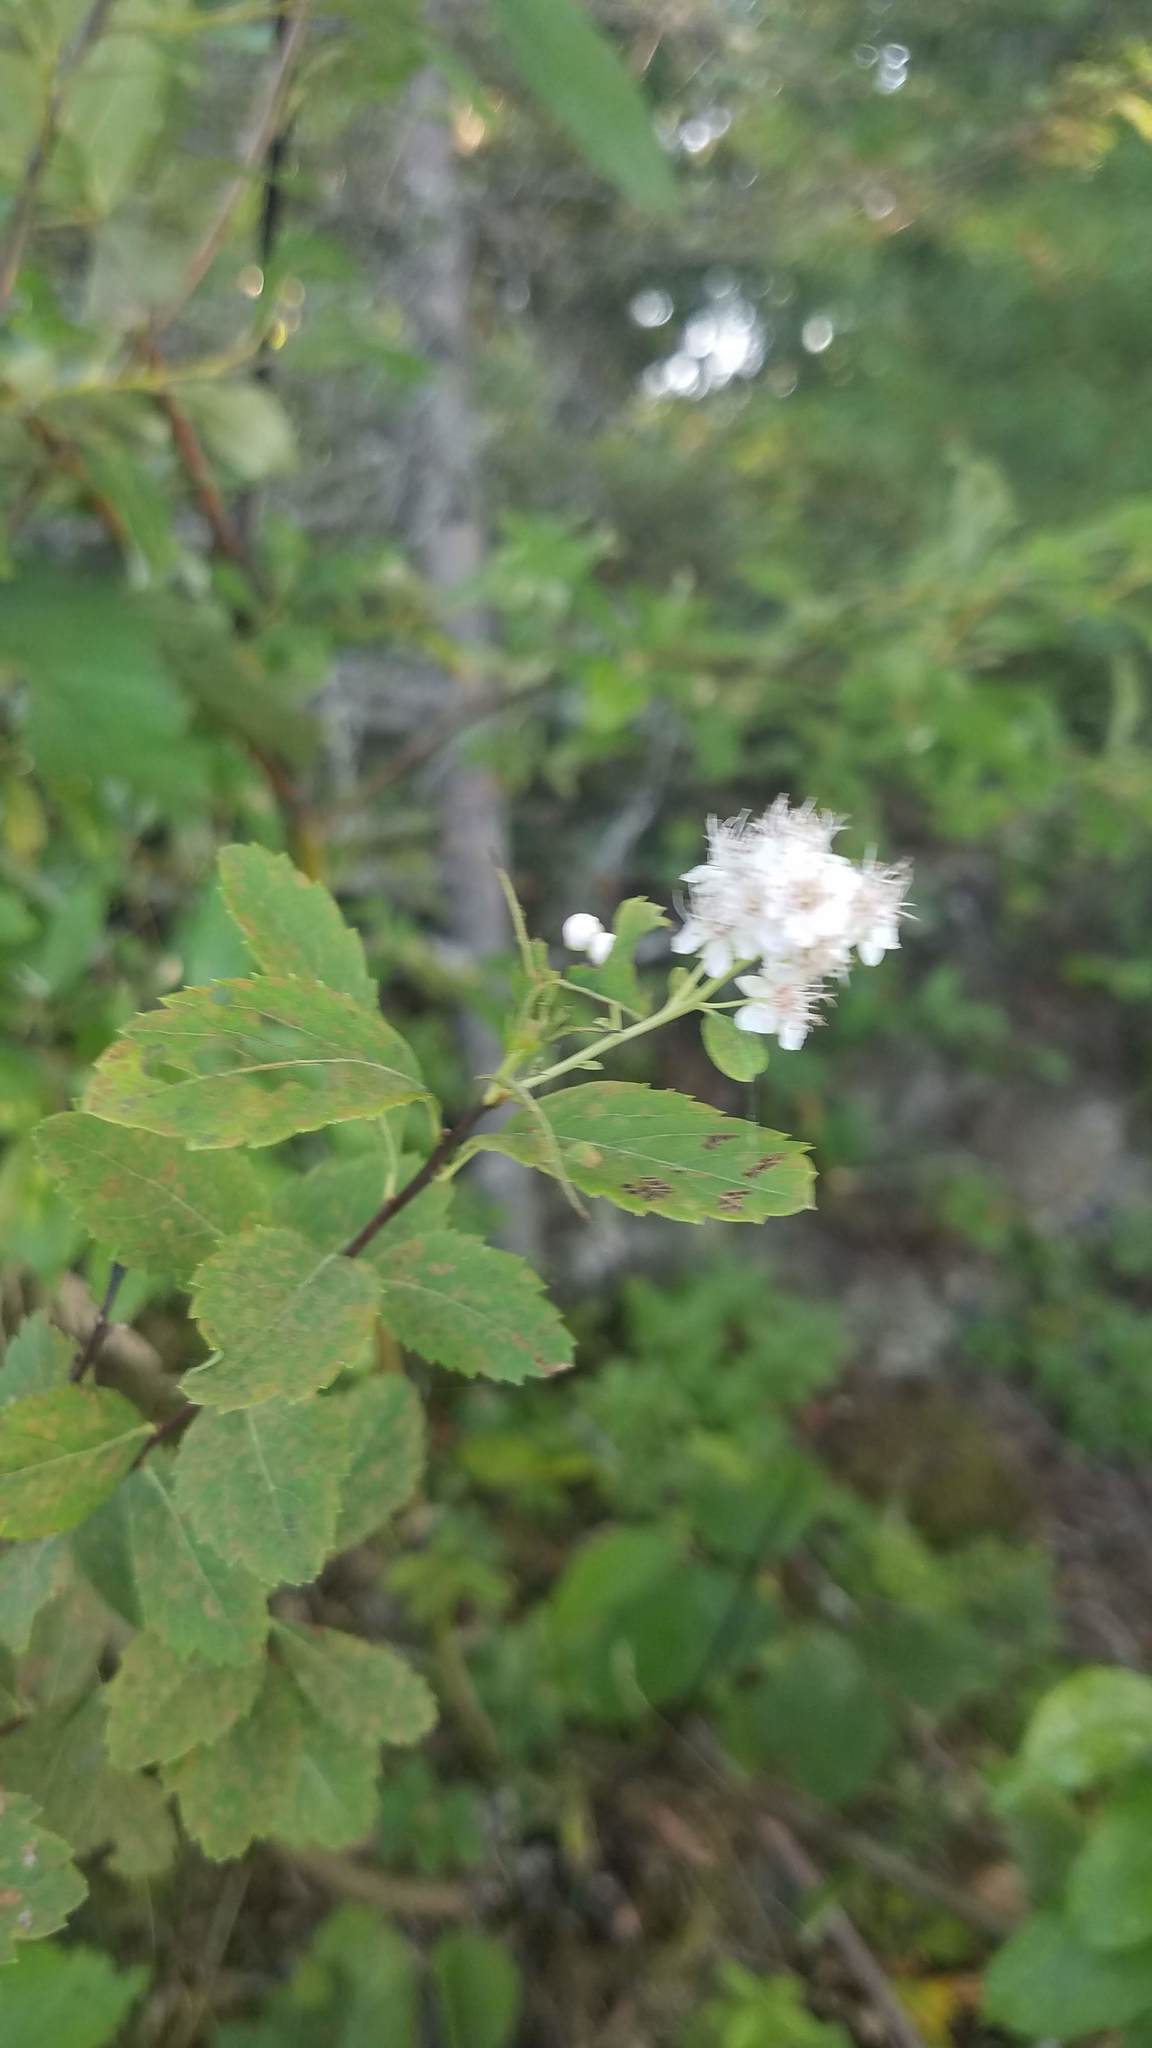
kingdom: Plantae
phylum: Tracheophyta
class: Magnoliopsida
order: Rosales
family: Rosaceae
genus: Spiraea
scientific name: Spiraea alba
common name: Pale bridewort
